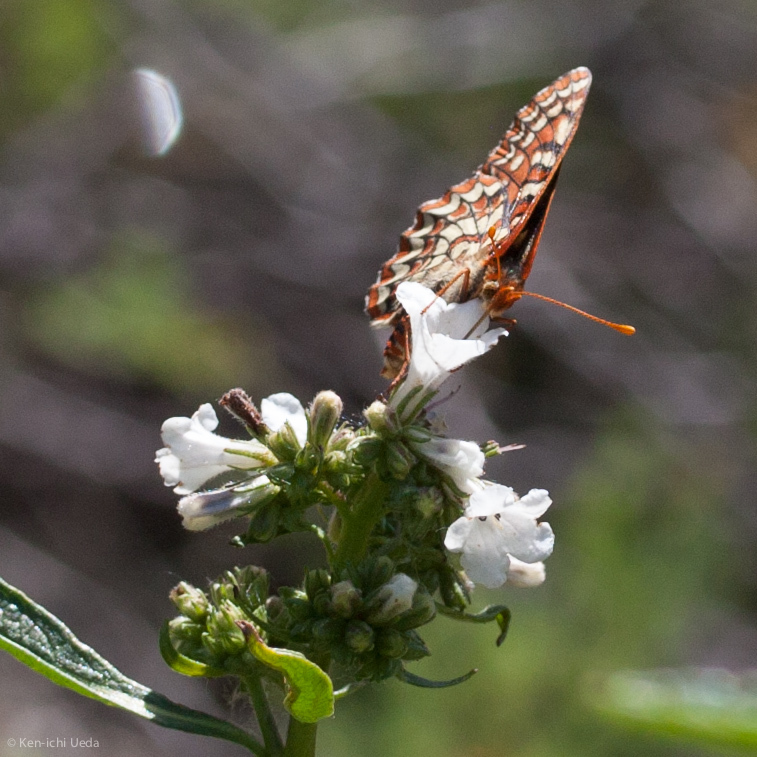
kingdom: Animalia
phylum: Arthropoda
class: Insecta
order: Lepidoptera
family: Nymphalidae
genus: Occidryas
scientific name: Occidryas editha
